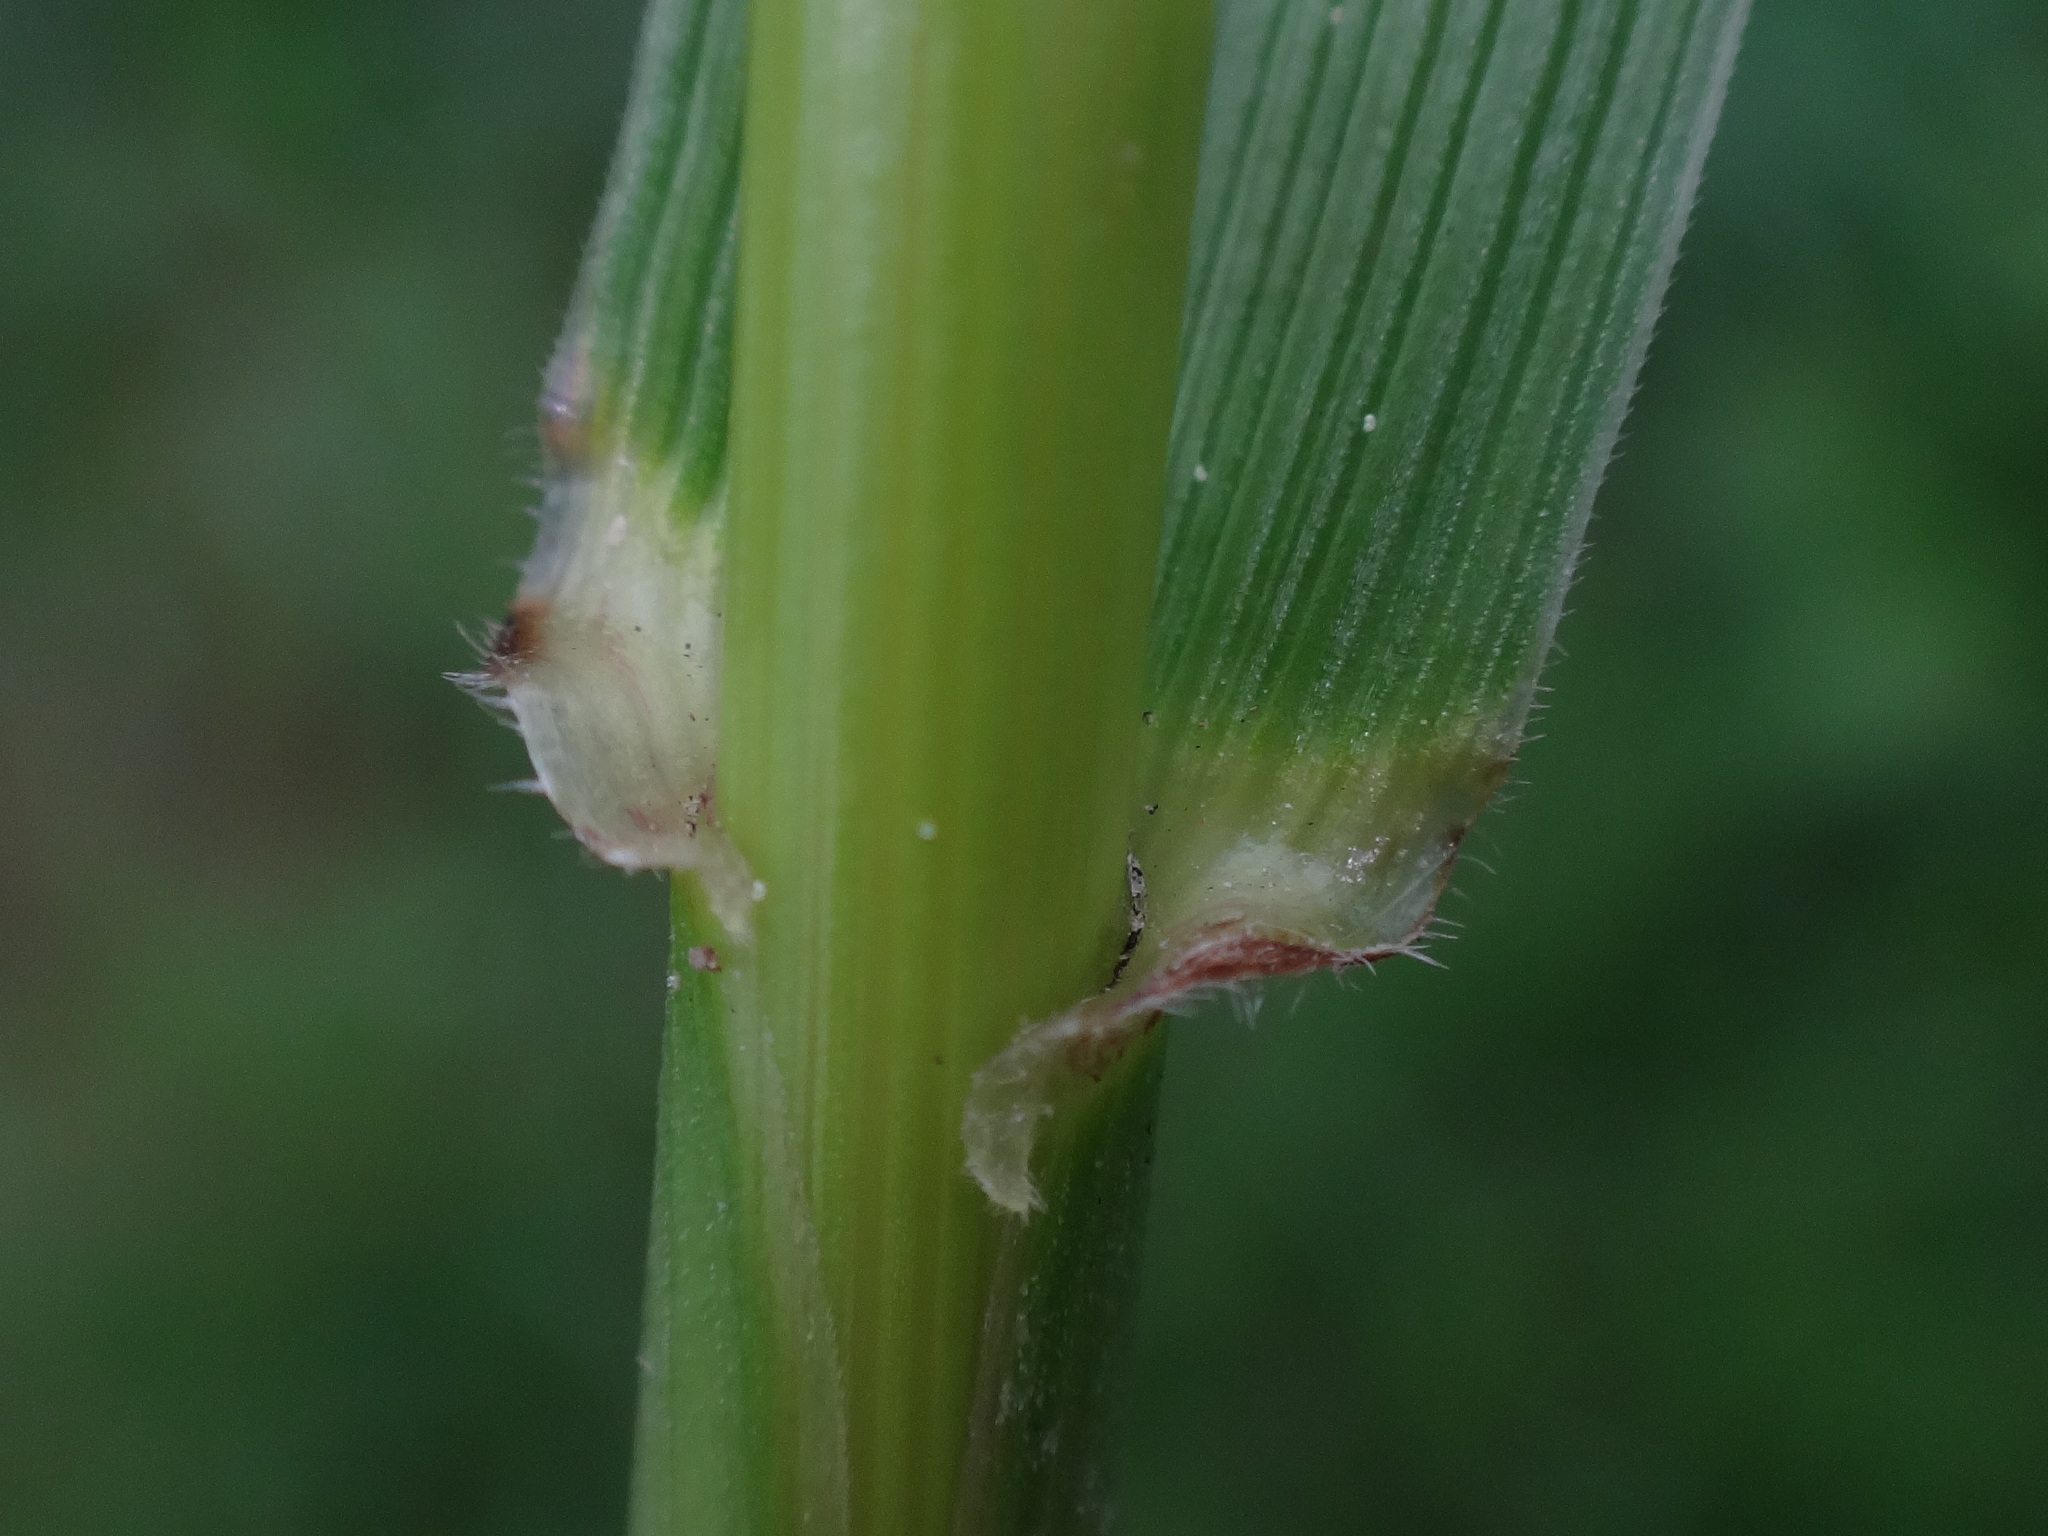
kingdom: Plantae
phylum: Tracheophyta
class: Liliopsida
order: Poales
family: Poaceae
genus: Lolium
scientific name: Lolium arundinaceum
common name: Reed fescue
